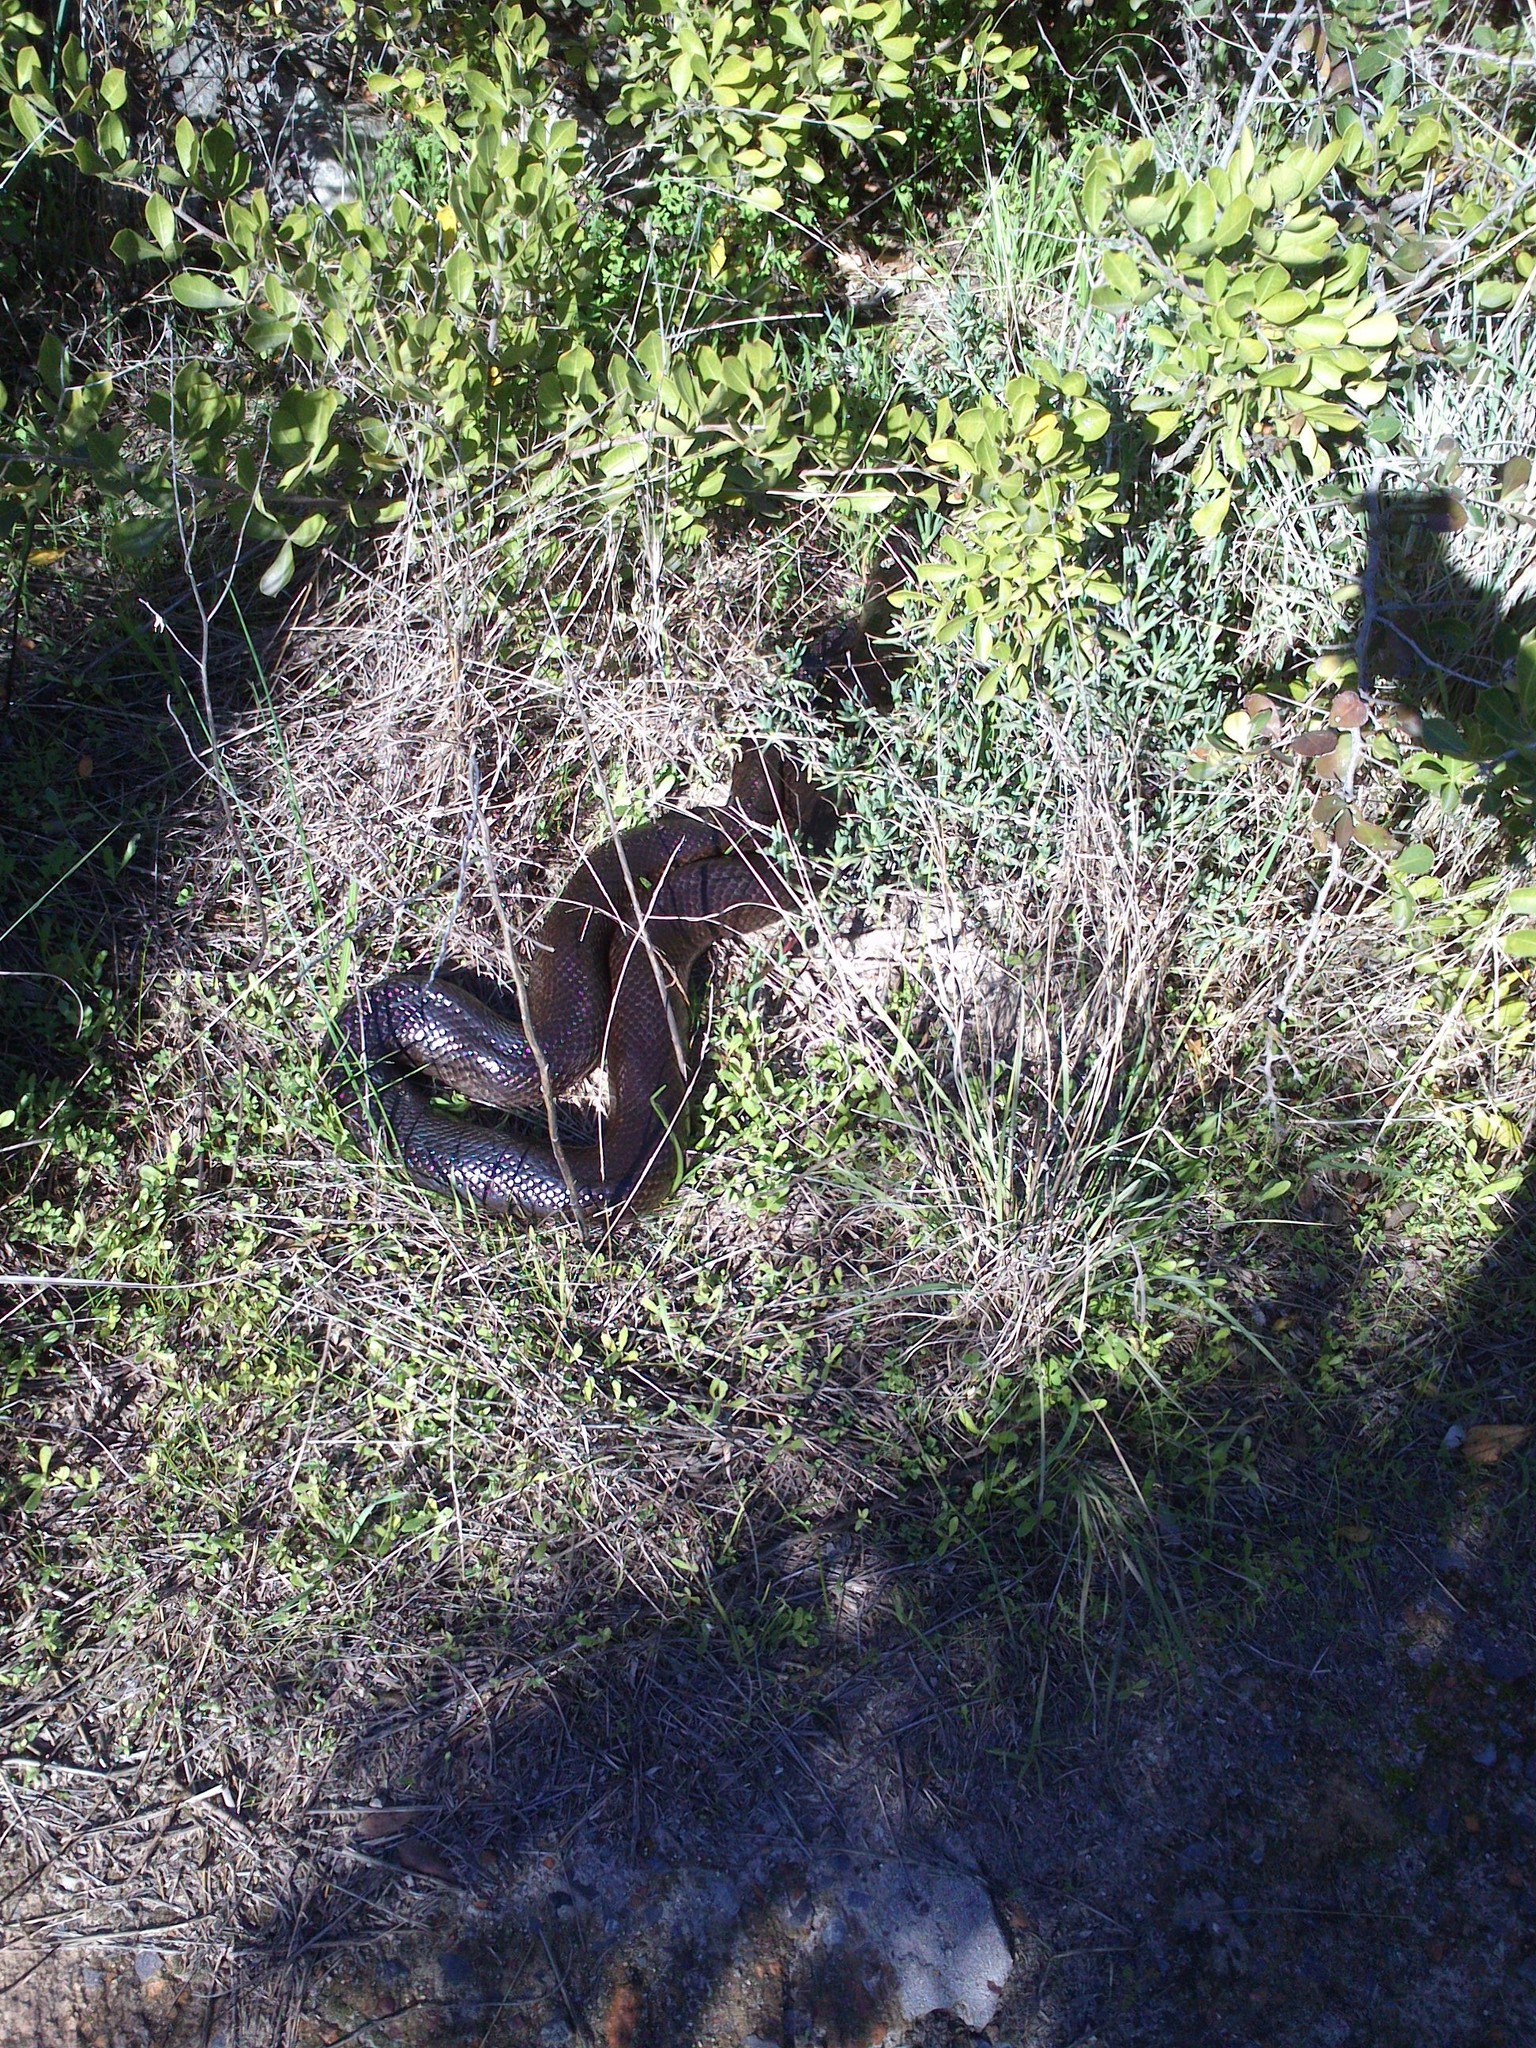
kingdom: Animalia
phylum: Chordata
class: Squamata
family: Pseudaspididae
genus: Pseudaspis
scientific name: Pseudaspis cana
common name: Mole snake
